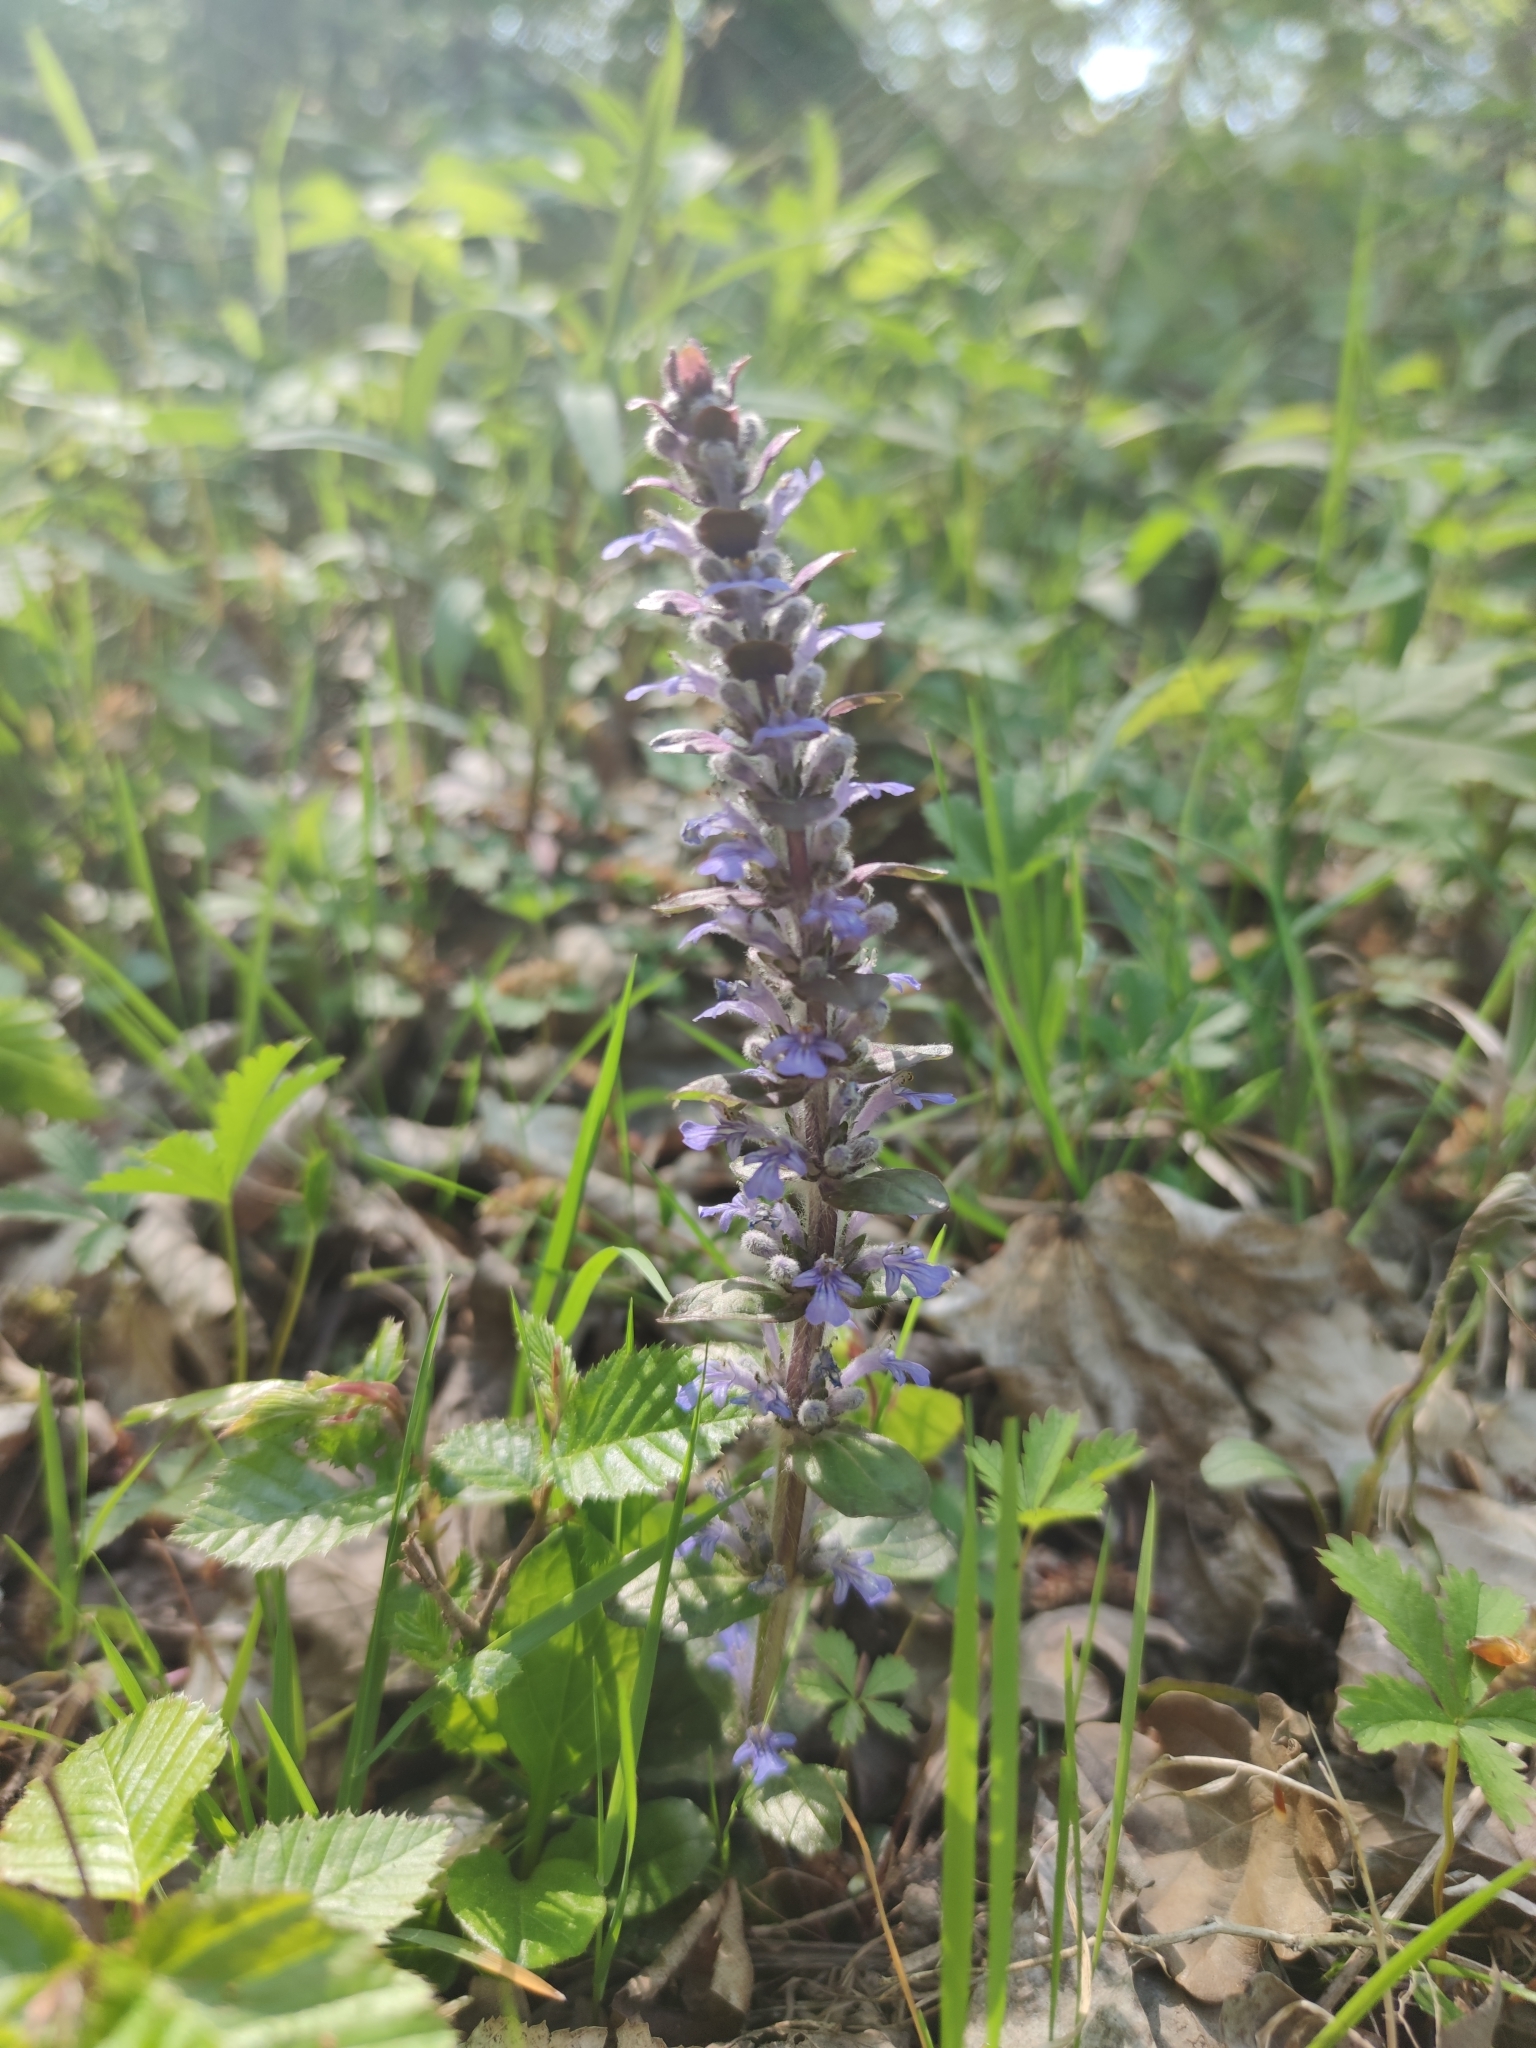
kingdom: Plantae
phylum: Tracheophyta
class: Magnoliopsida
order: Lamiales
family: Lamiaceae
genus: Ajuga
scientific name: Ajuga reptans
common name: Bugle
